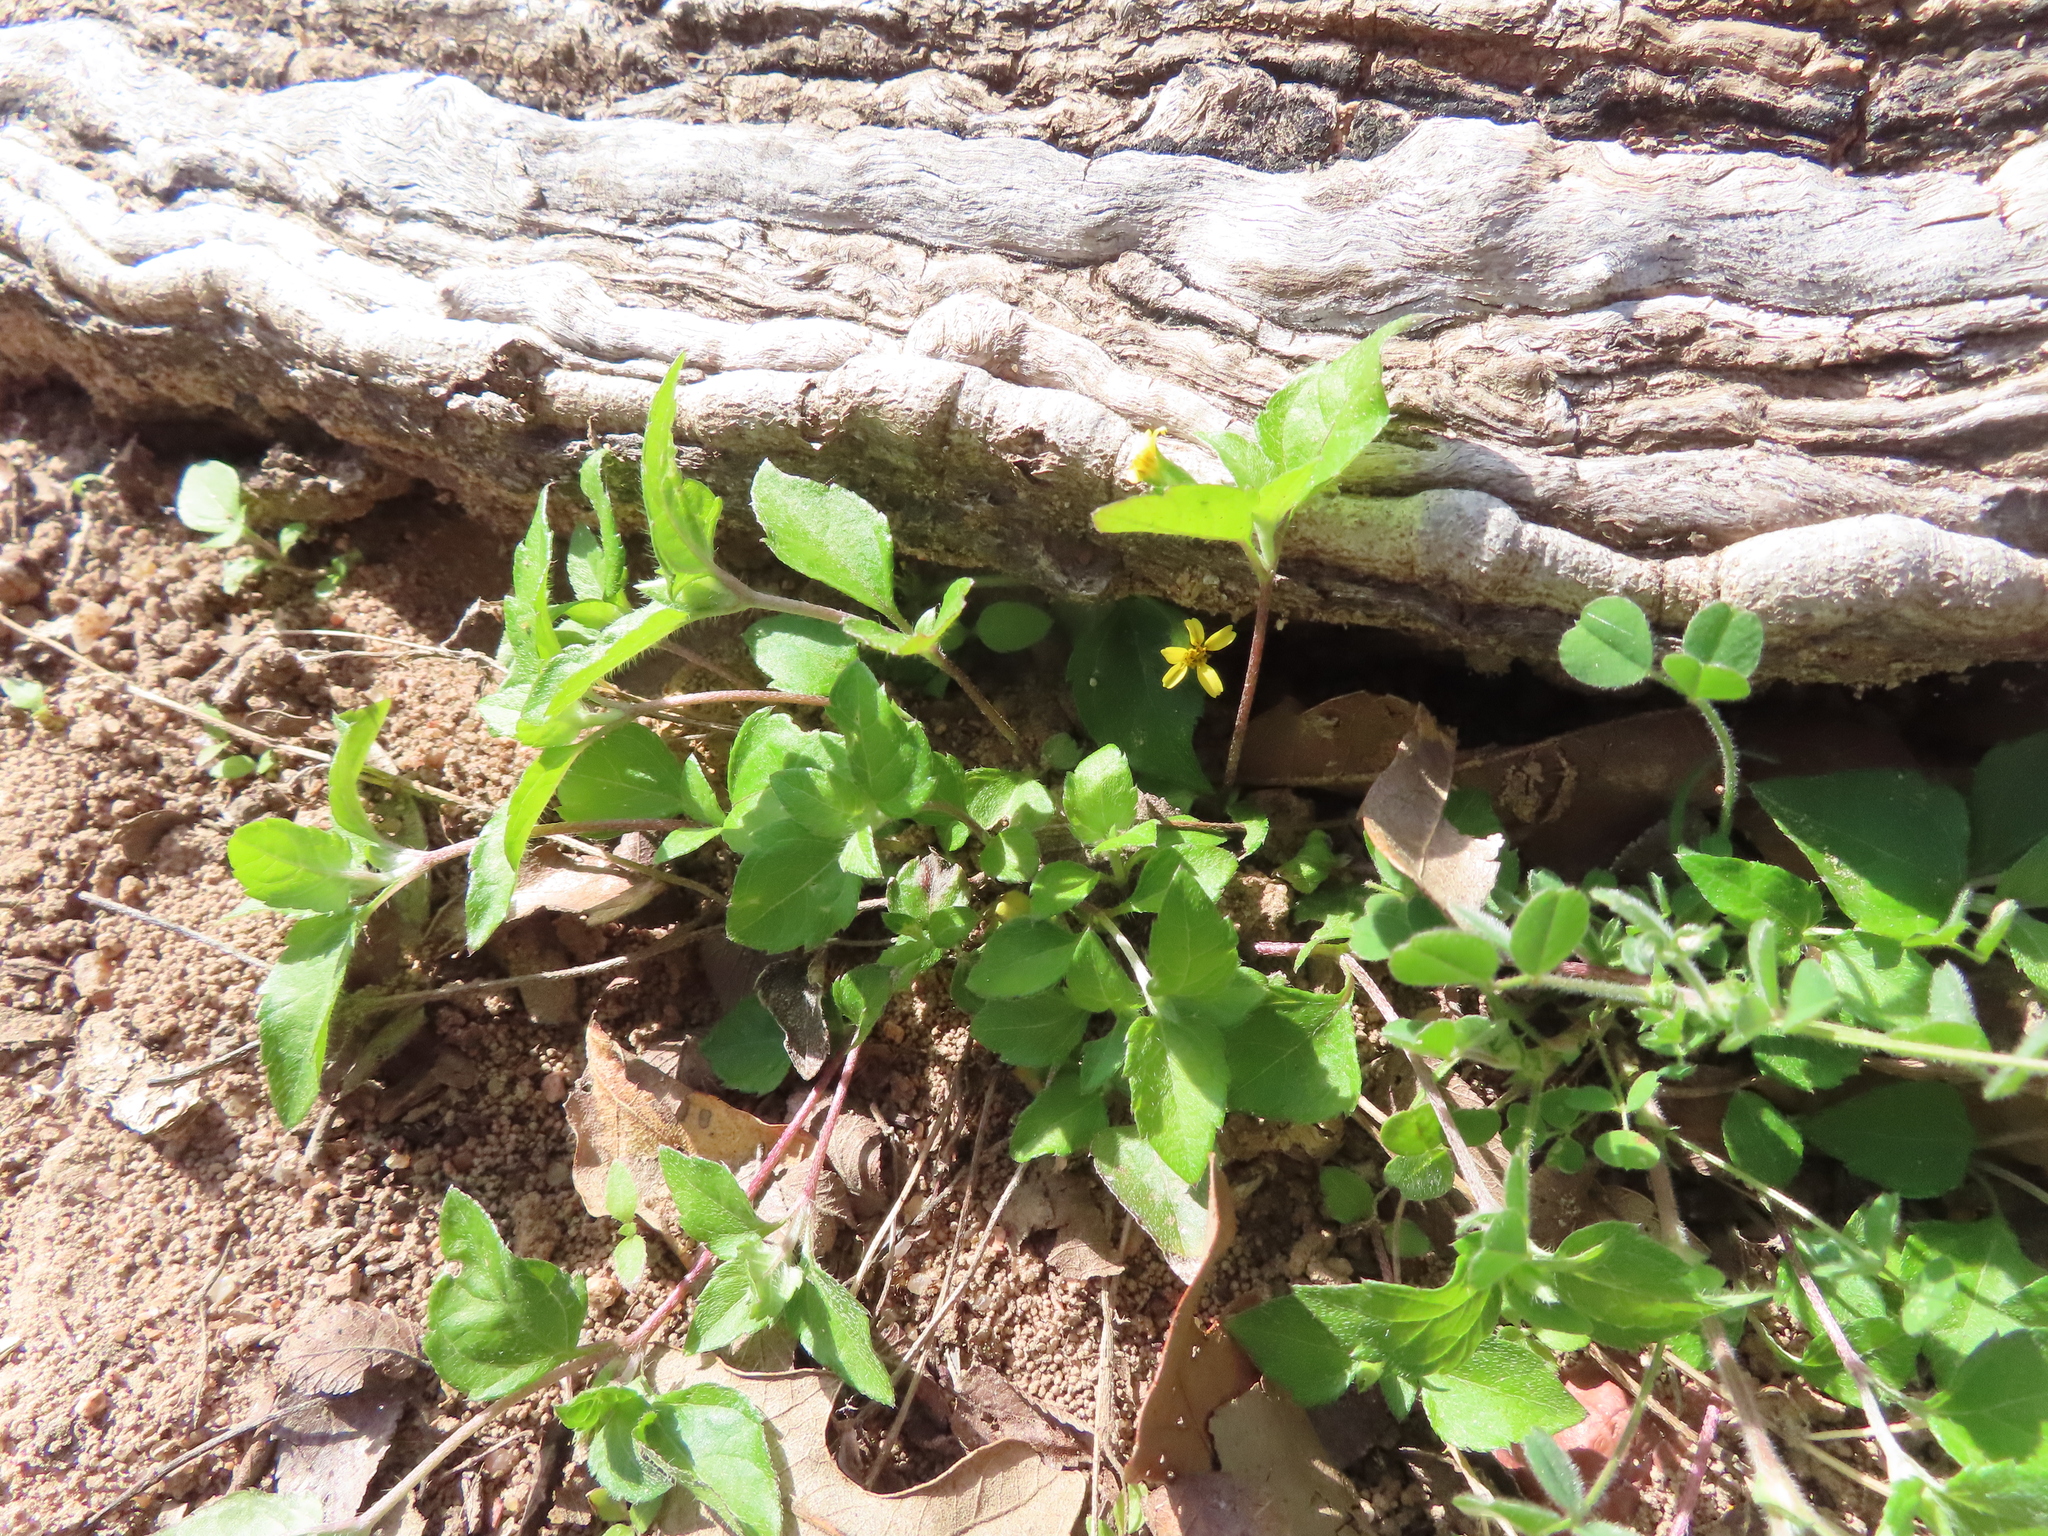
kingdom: Plantae
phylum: Tracheophyta
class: Magnoliopsida
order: Asterales
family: Asteraceae
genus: Calyptocarpus
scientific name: Calyptocarpus vialis
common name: Straggler daisy
